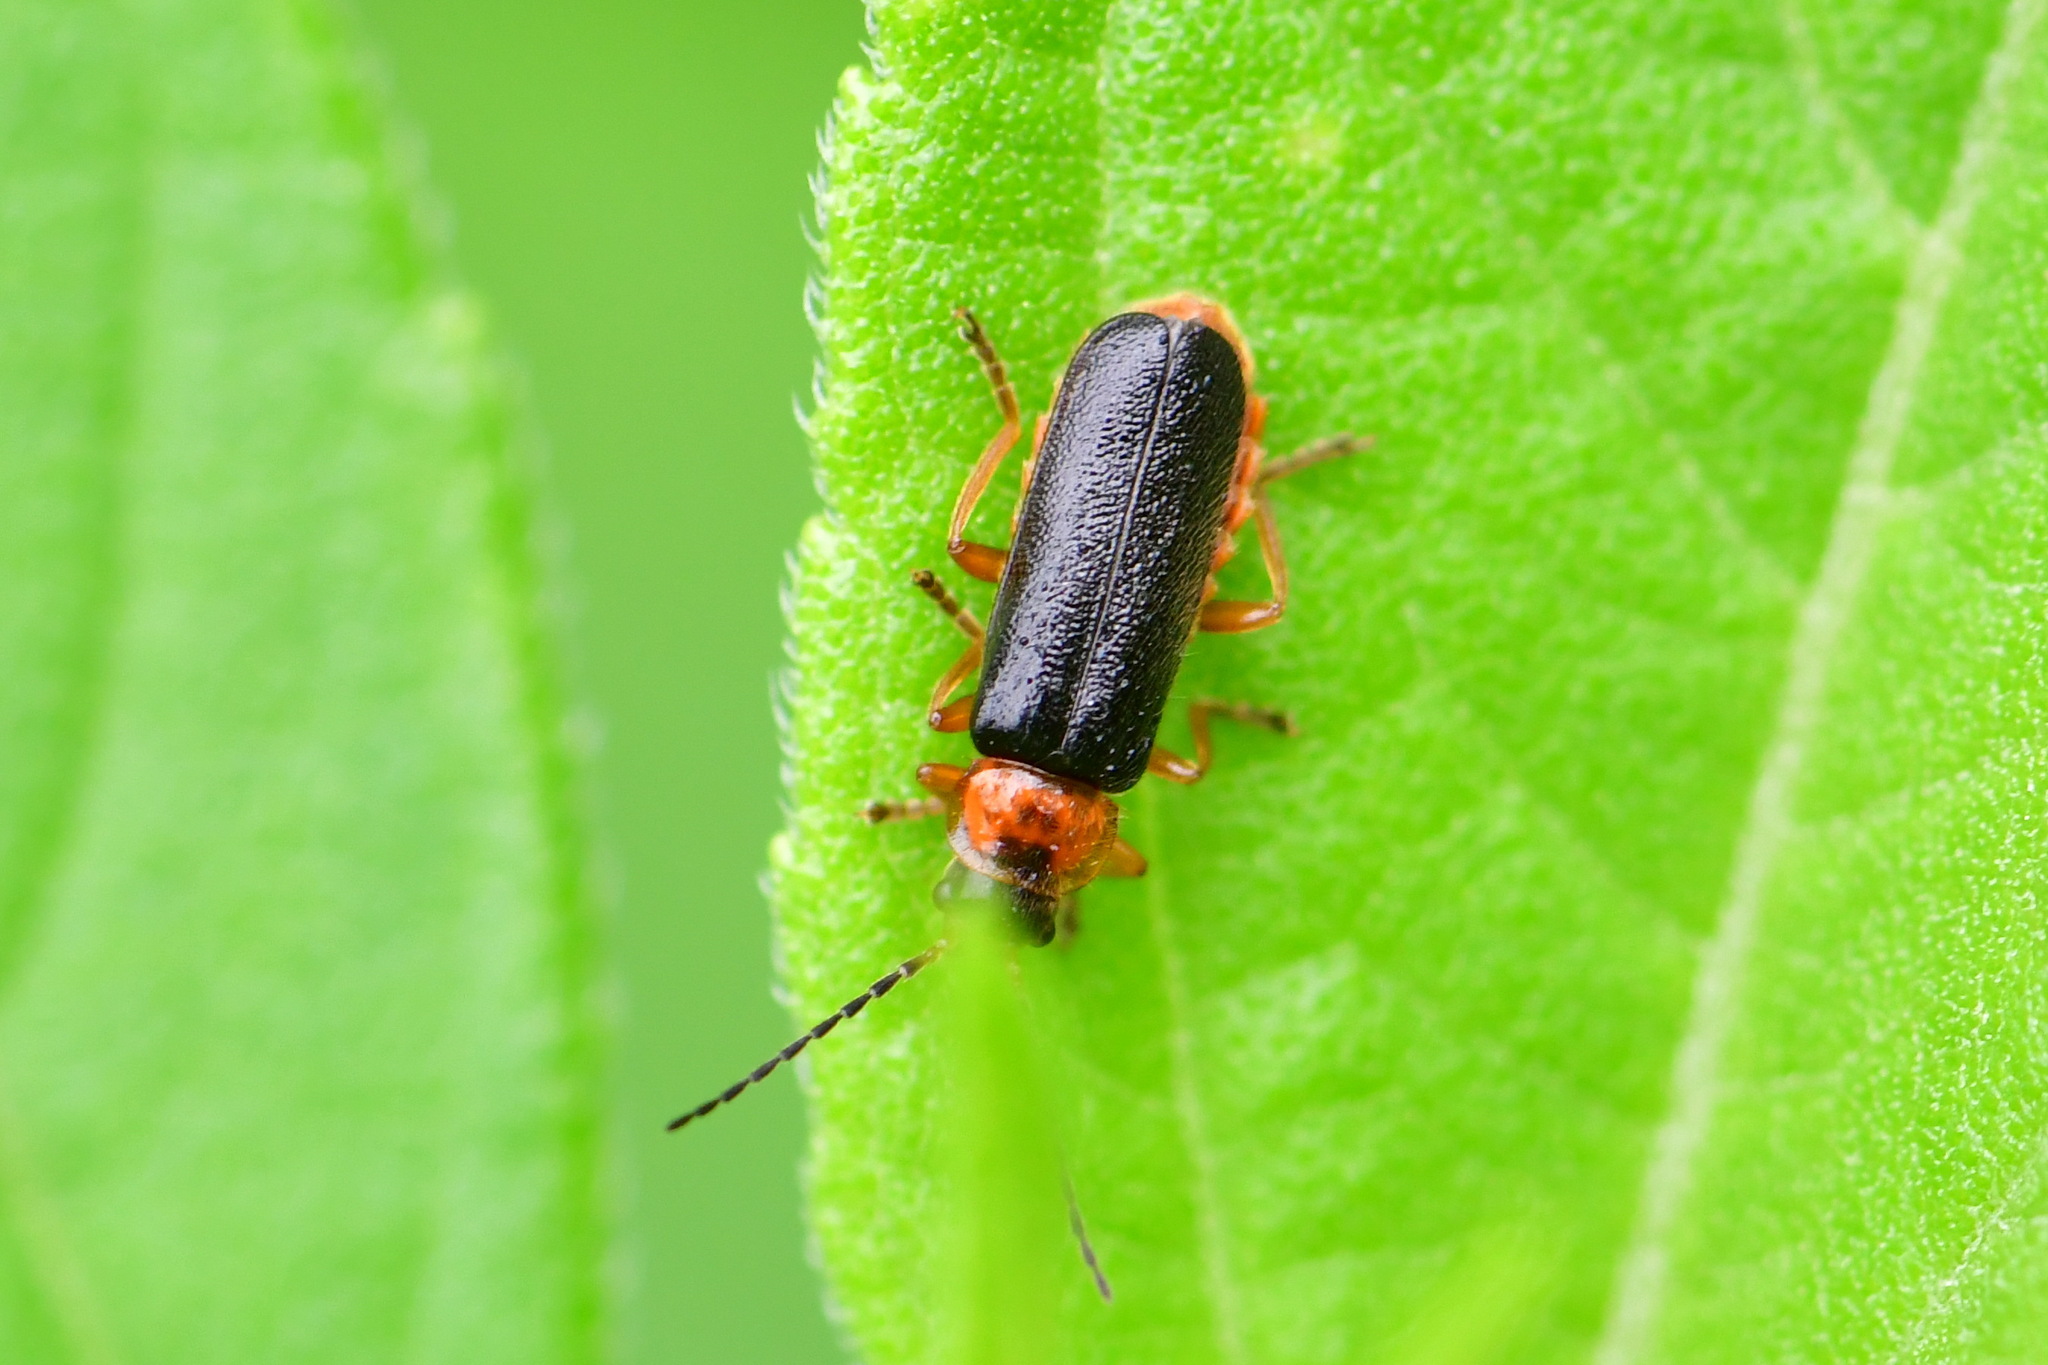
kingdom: Animalia
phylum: Arthropoda
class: Insecta
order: Coleoptera
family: Cantharidae
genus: Cantharis
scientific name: Cantharis flavilabris
